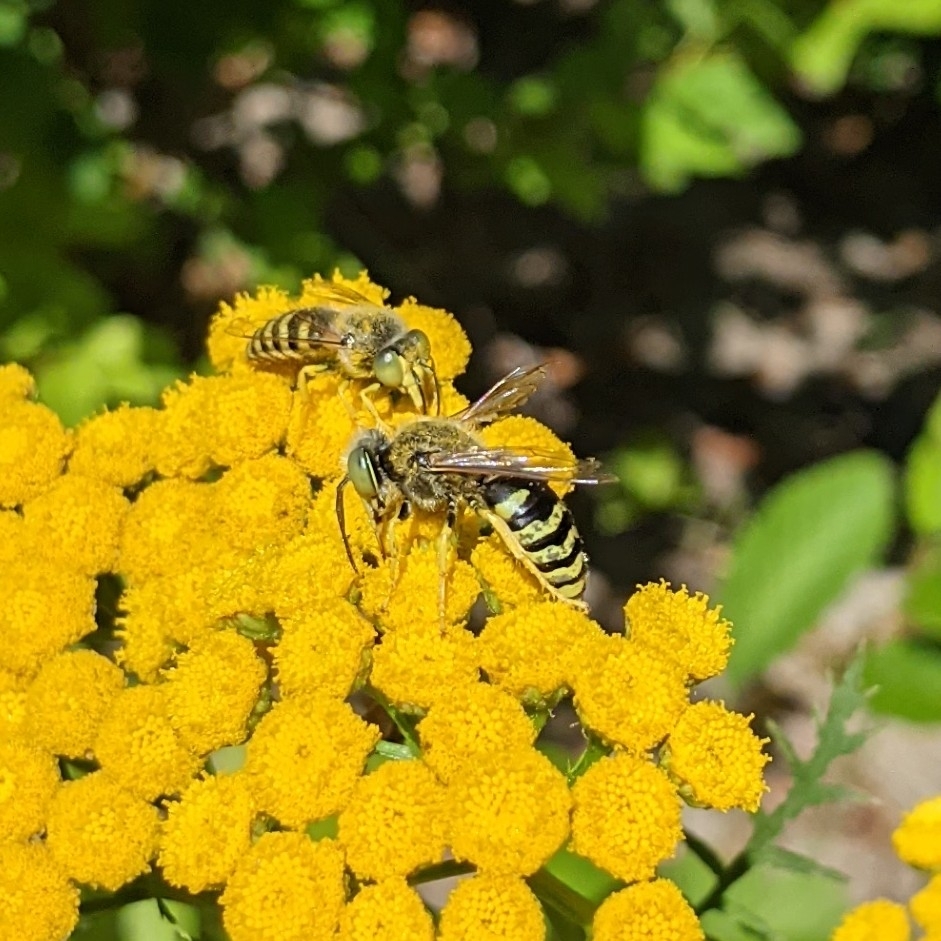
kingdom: Animalia
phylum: Arthropoda
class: Insecta
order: Hymenoptera
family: Crabronidae
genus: Bembix
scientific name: Bembix americana
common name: American sand wasp
